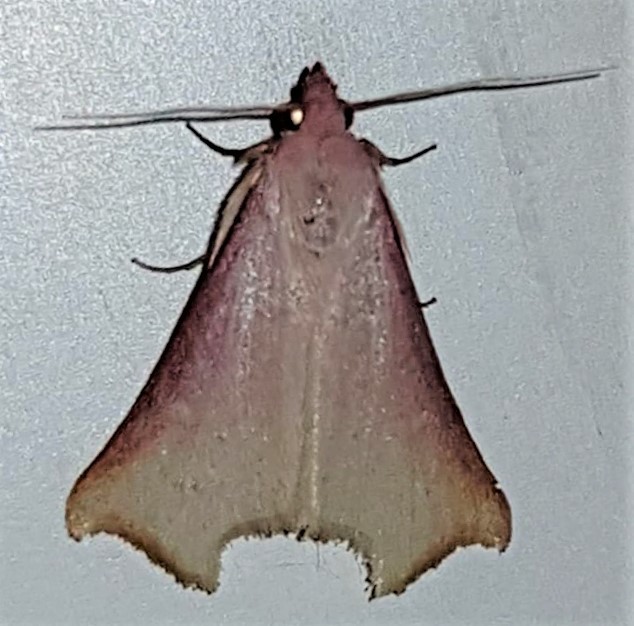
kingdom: Animalia
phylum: Arthropoda
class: Insecta
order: Lepidoptera
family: Erebidae
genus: Rhododactyla
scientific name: Rhododactyla semirosea
